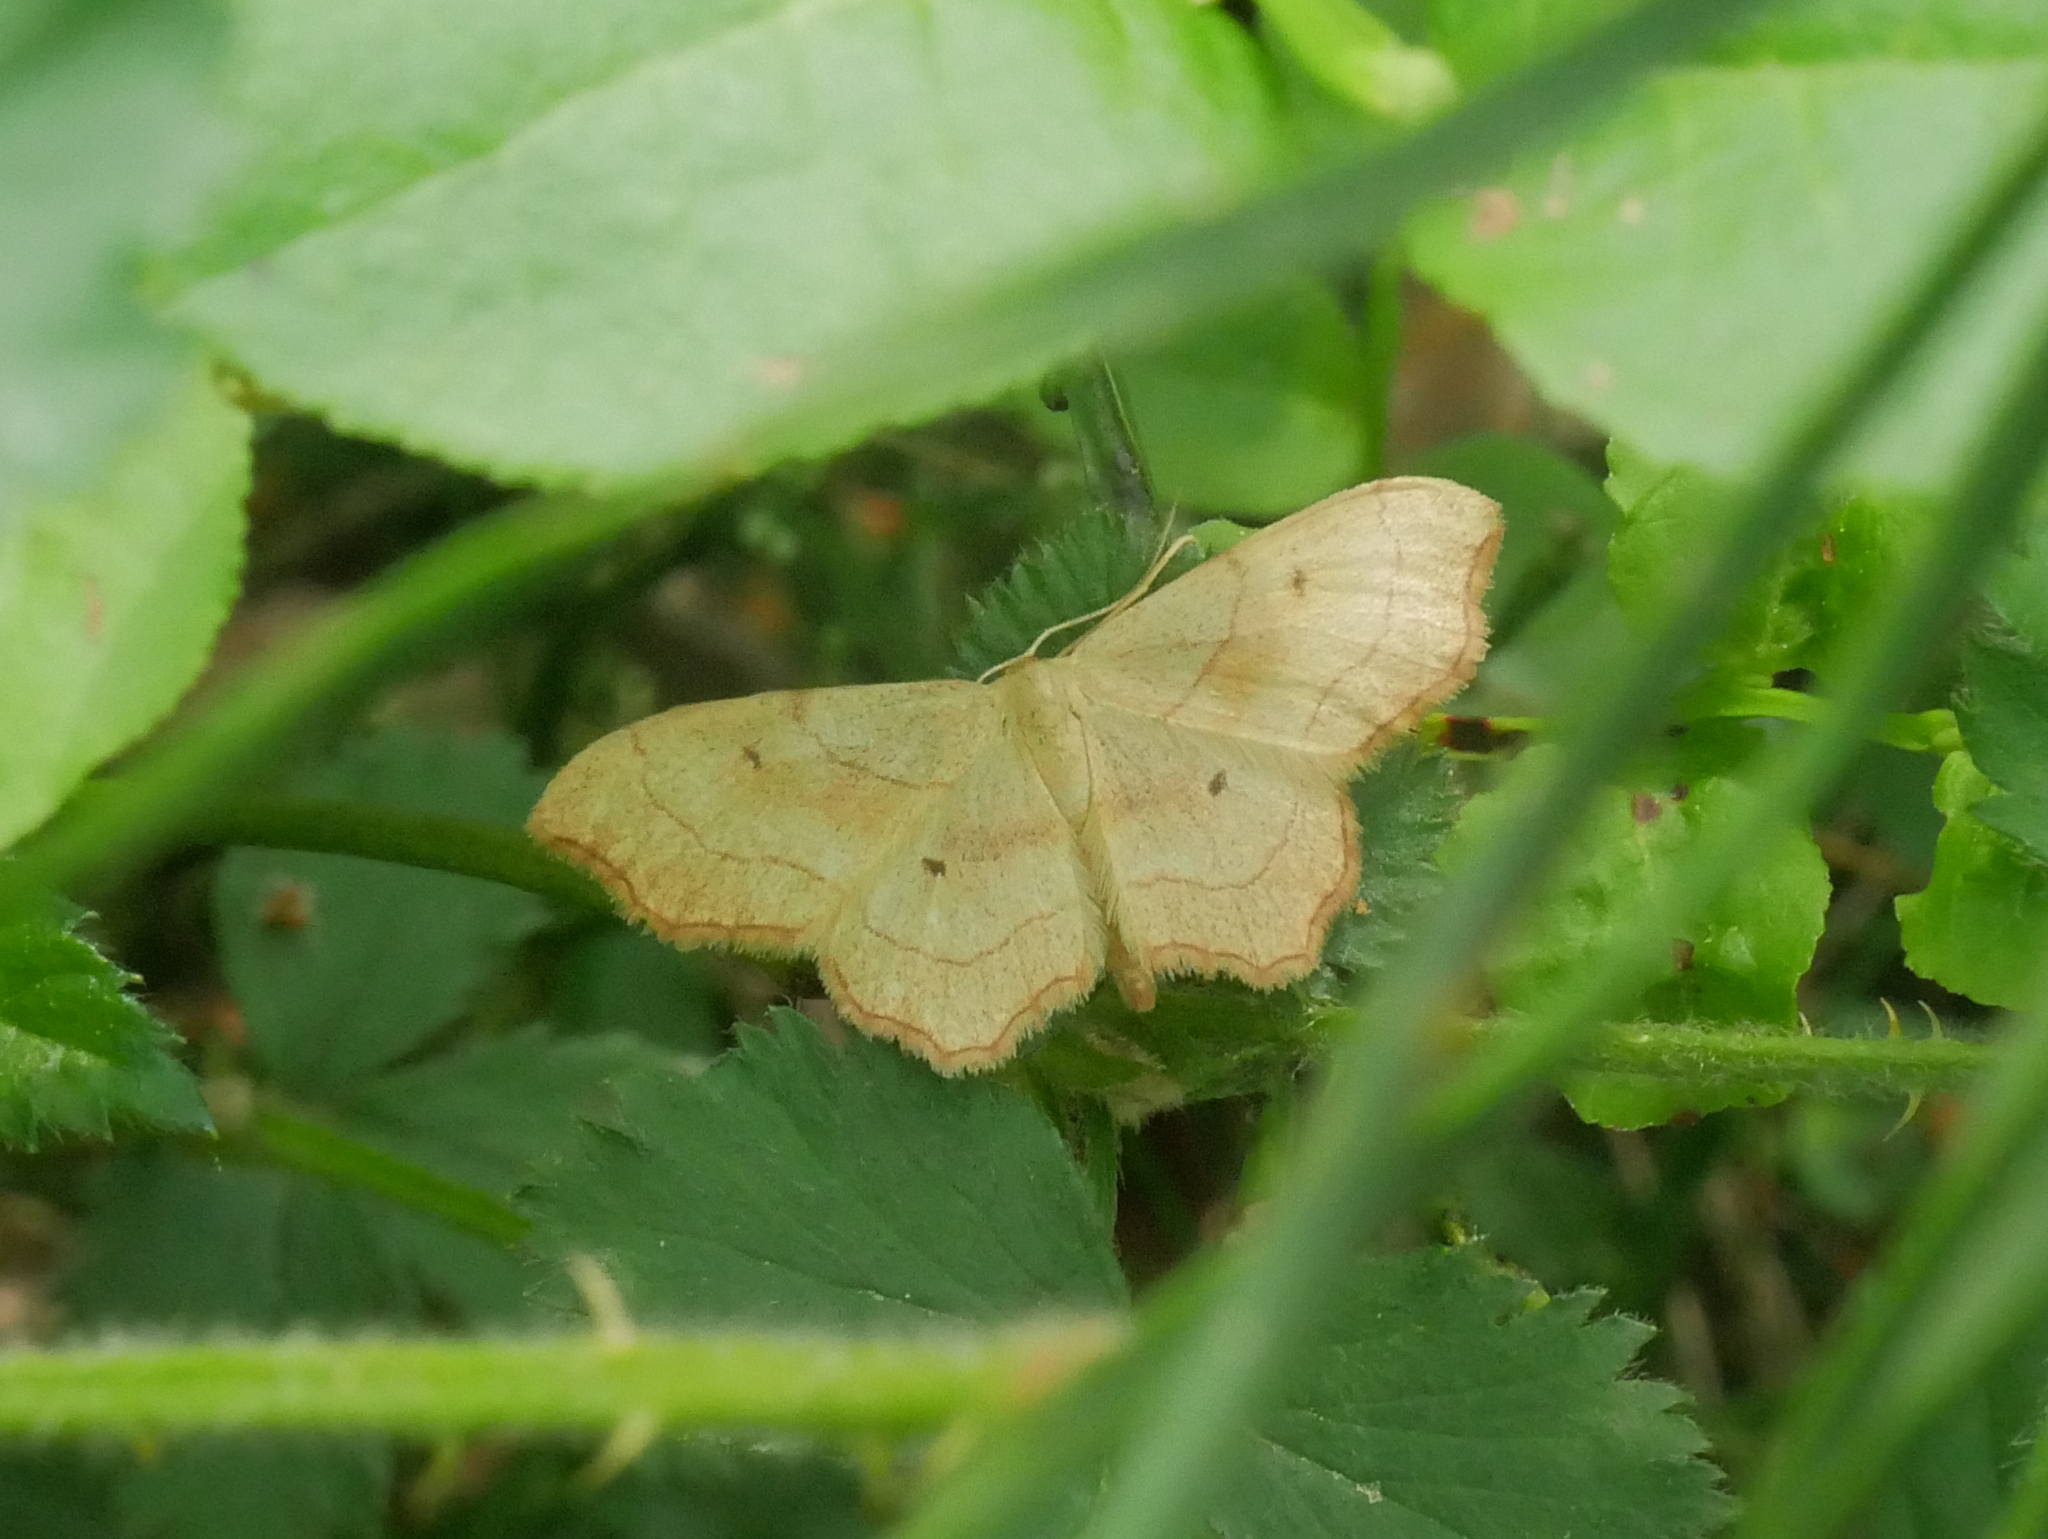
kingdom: Animalia
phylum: Arthropoda
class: Insecta
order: Lepidoptera
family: Geometridae
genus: Idaea
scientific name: Idaea emarginata
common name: Small scallop
